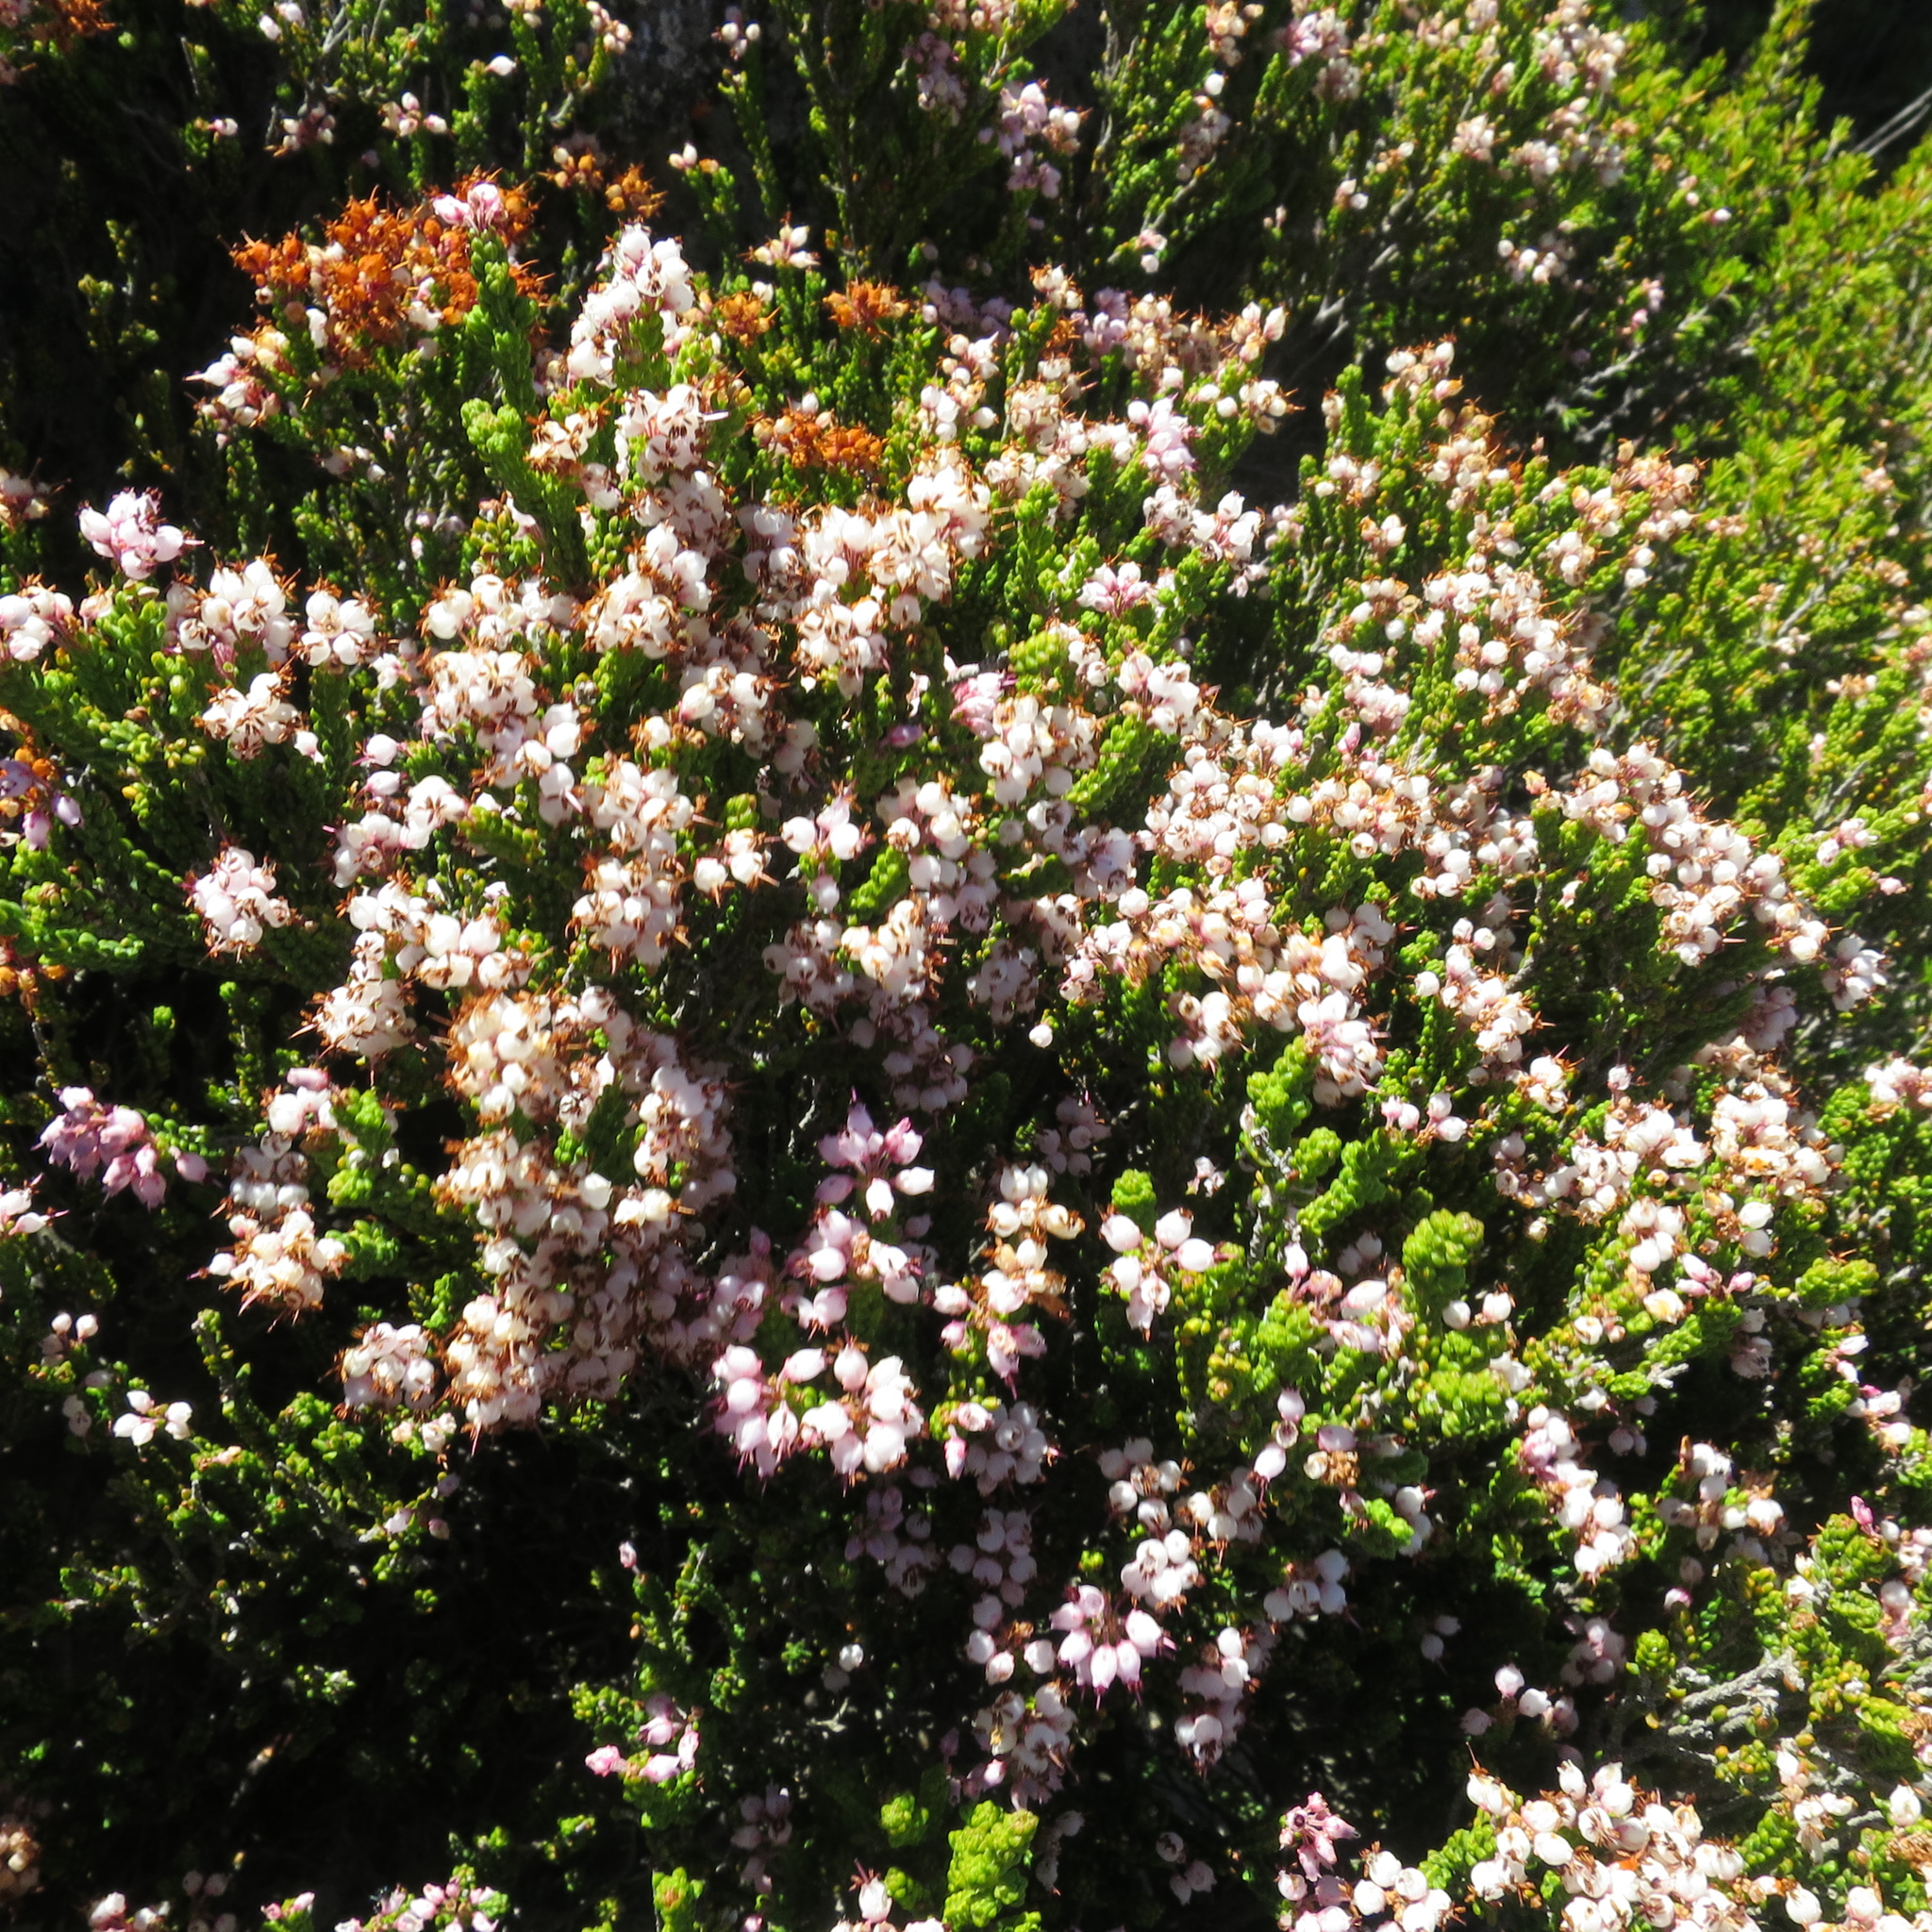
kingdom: Plantae
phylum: Tracheophyta
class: Magnoliopsida
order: Ericales
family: Ericaceae
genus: Erica
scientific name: Erica petraea
